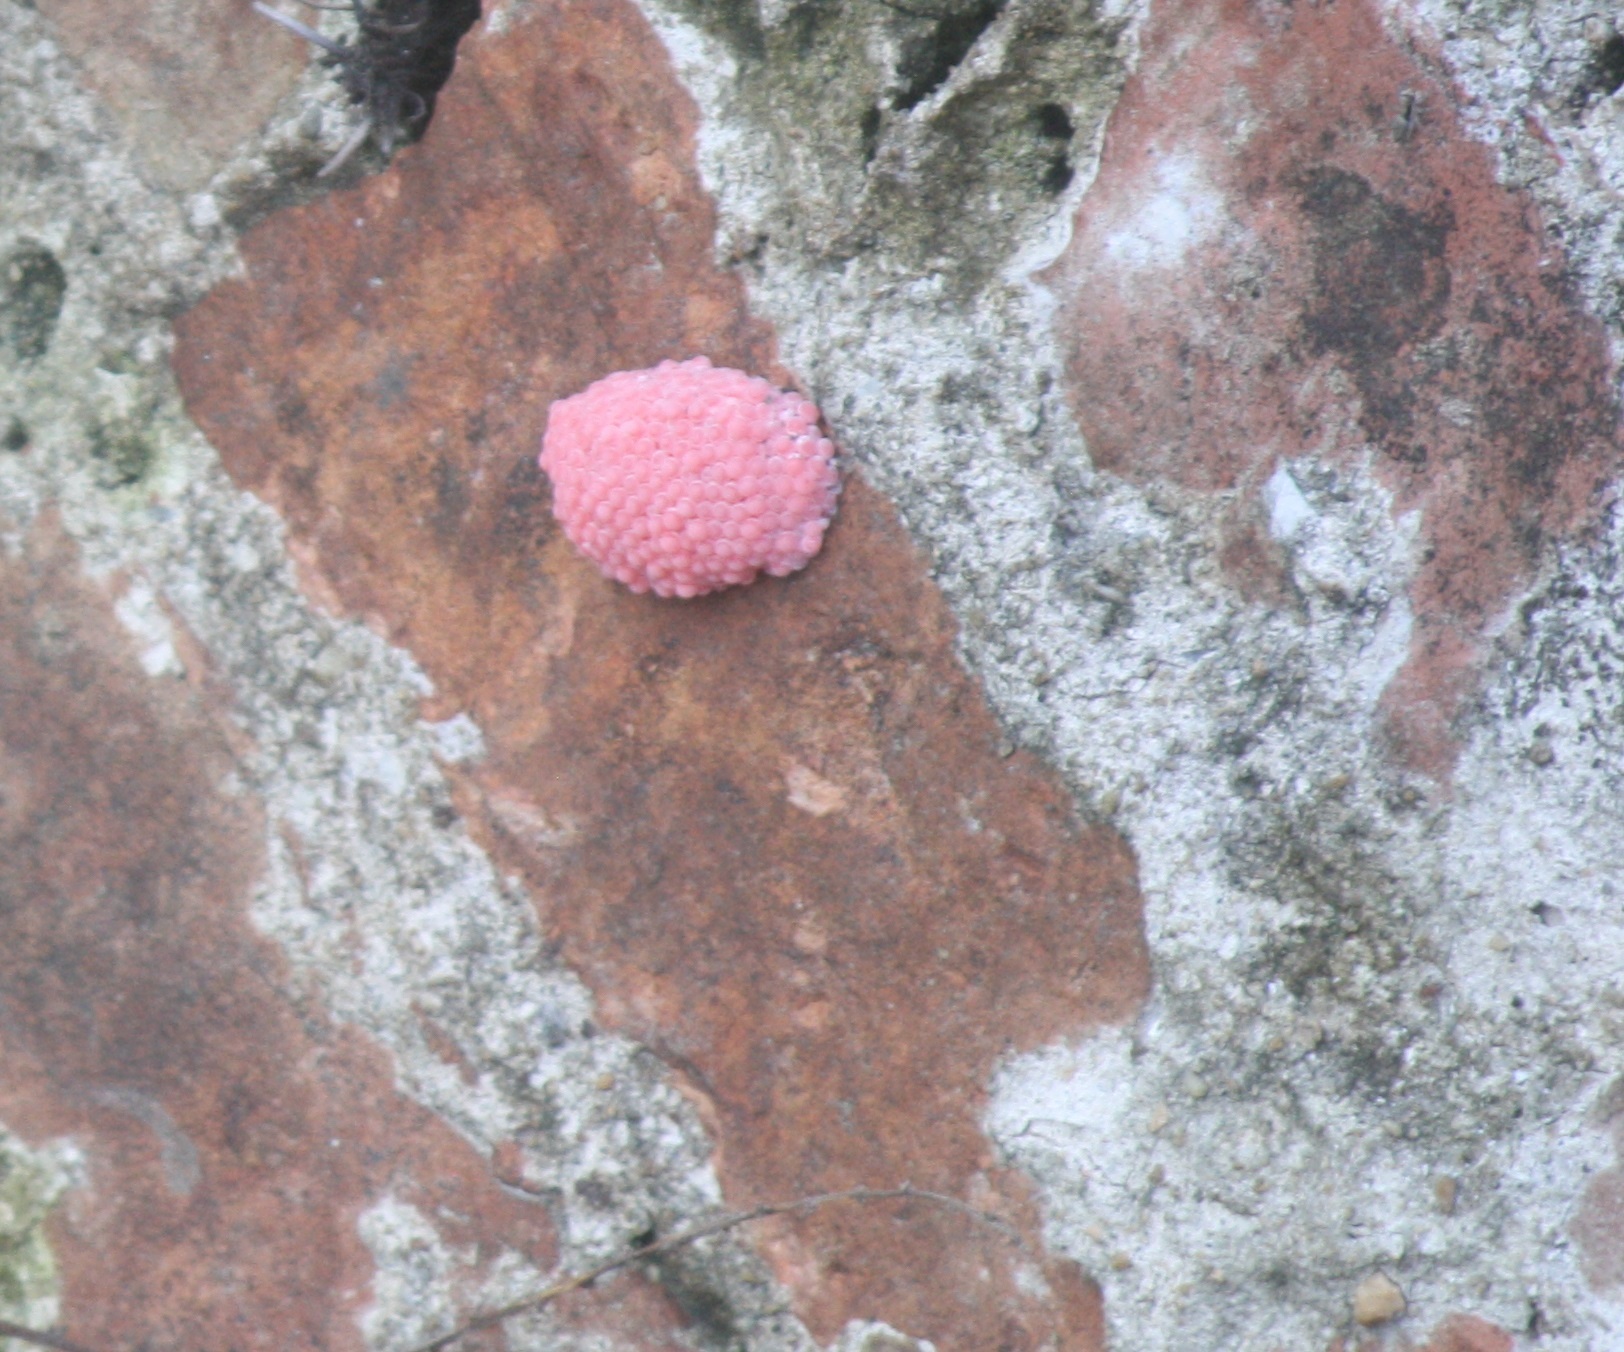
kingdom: Animalia
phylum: Mollusca
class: Gastropoda
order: Architaenioglossa
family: Ampullariidae
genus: Pomacea
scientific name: Pomacea
